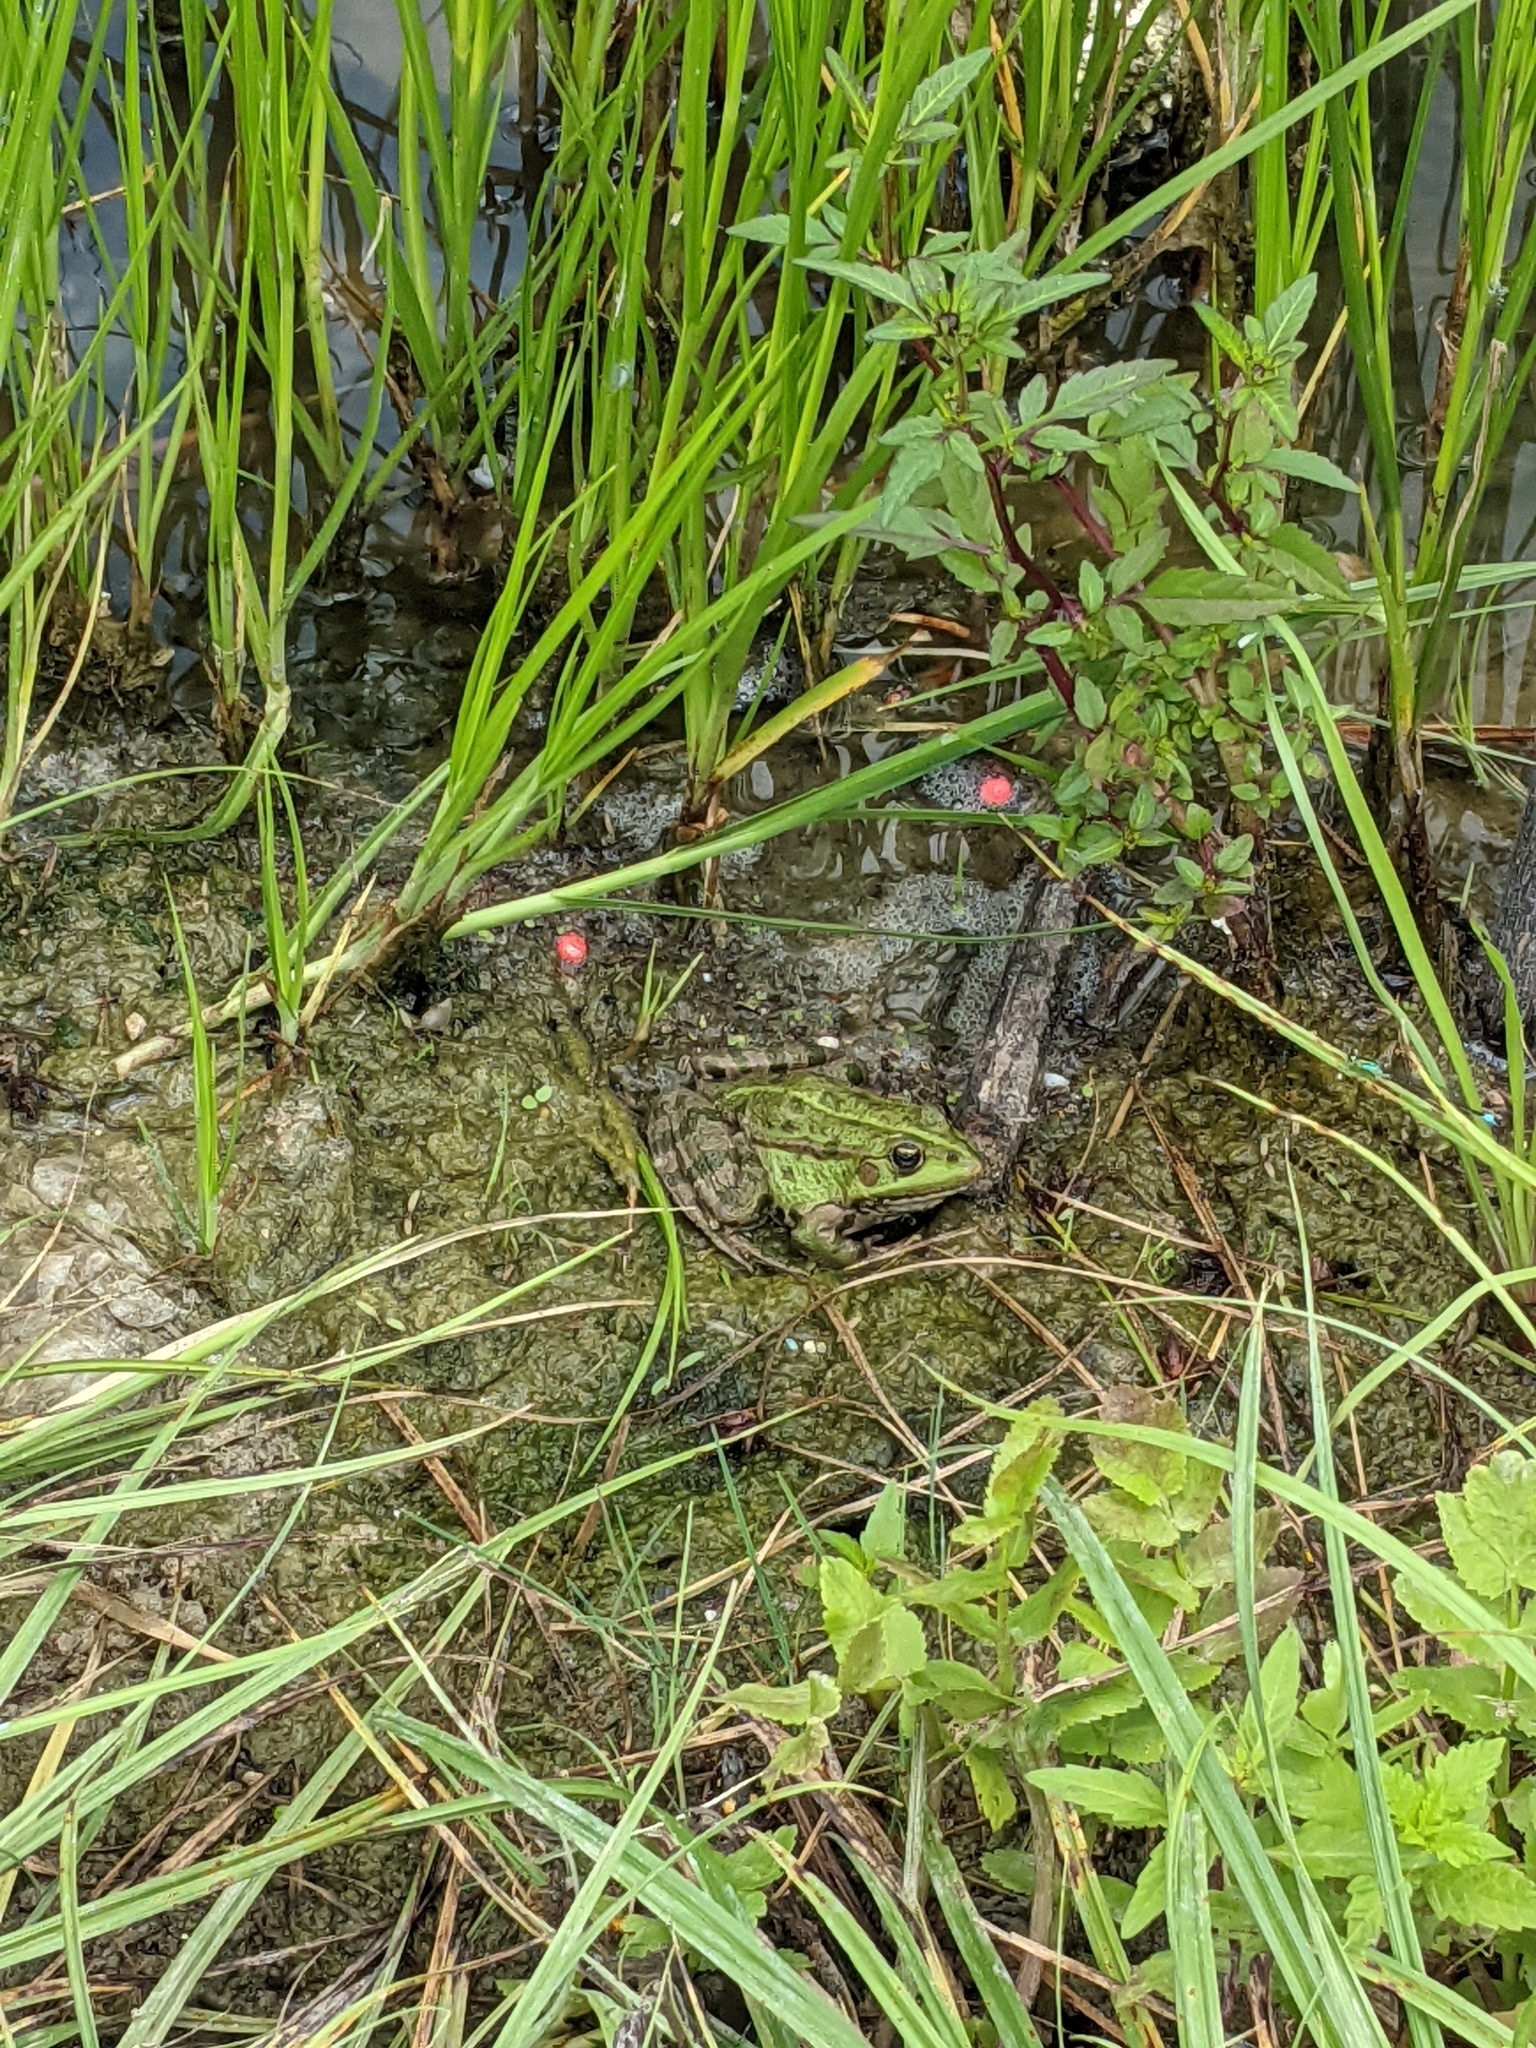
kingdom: Animalia
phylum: Chordata
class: Amphibia
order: Anura
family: Ranidae
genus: Pelophylax
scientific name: Pelophylax ridibundus
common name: Marsh frog
